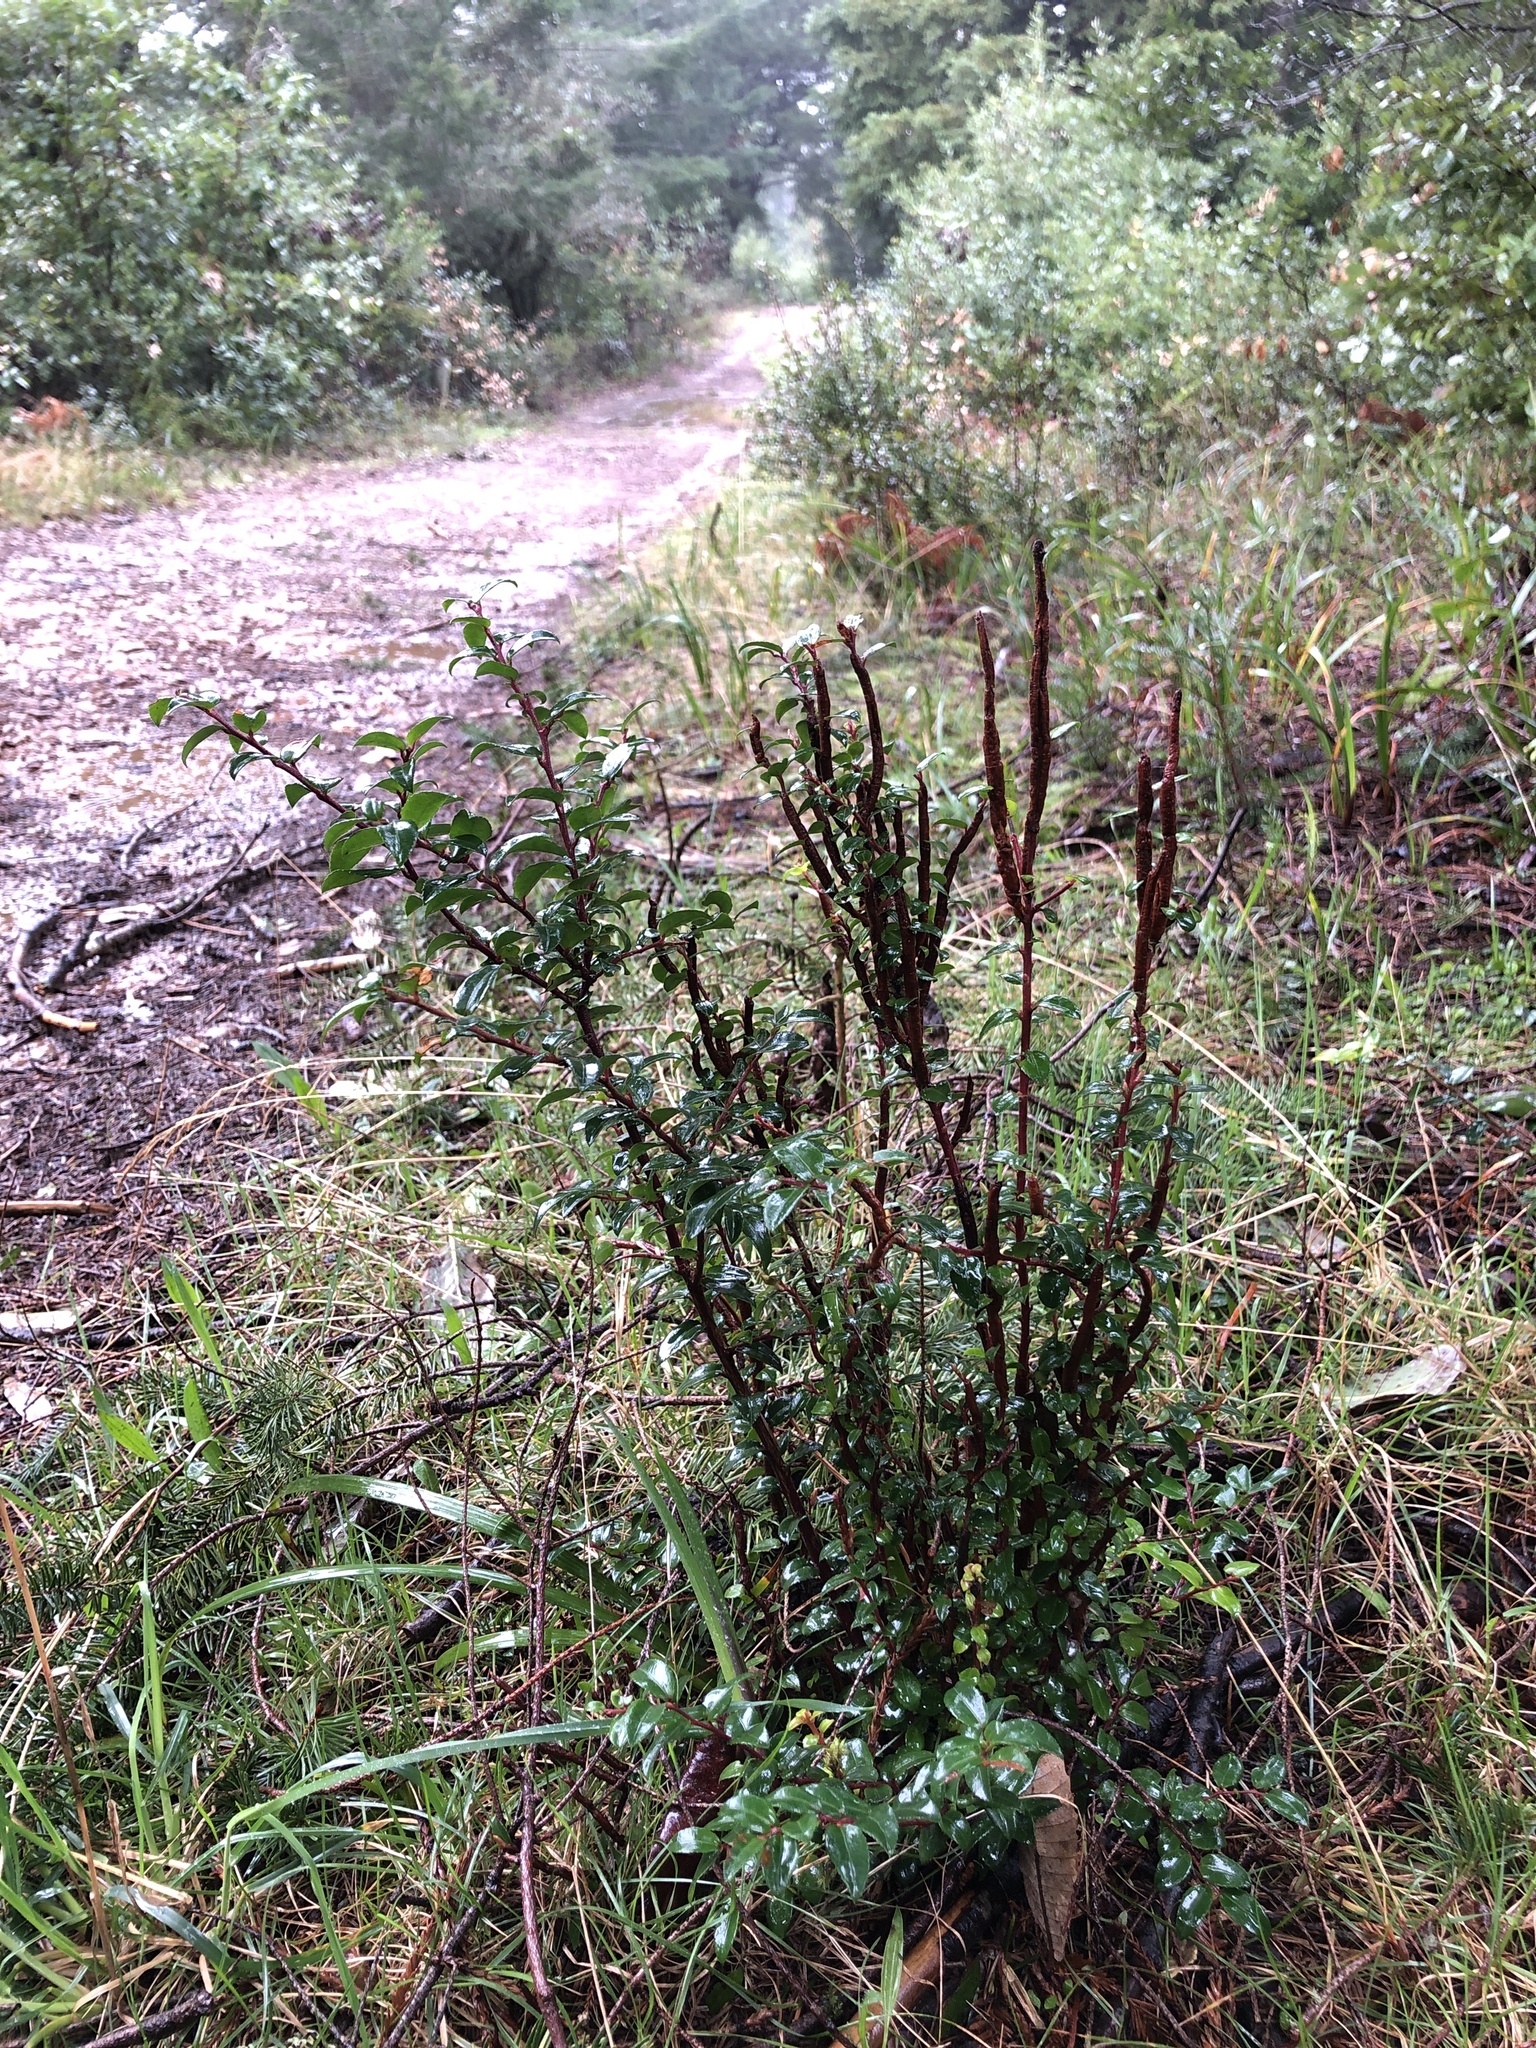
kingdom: Fungi
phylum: Basidiomycota
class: Pucciniomycetes
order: Pucciniales
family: Pucciniastraceae
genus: Calyptospora
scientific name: Calyptospora
